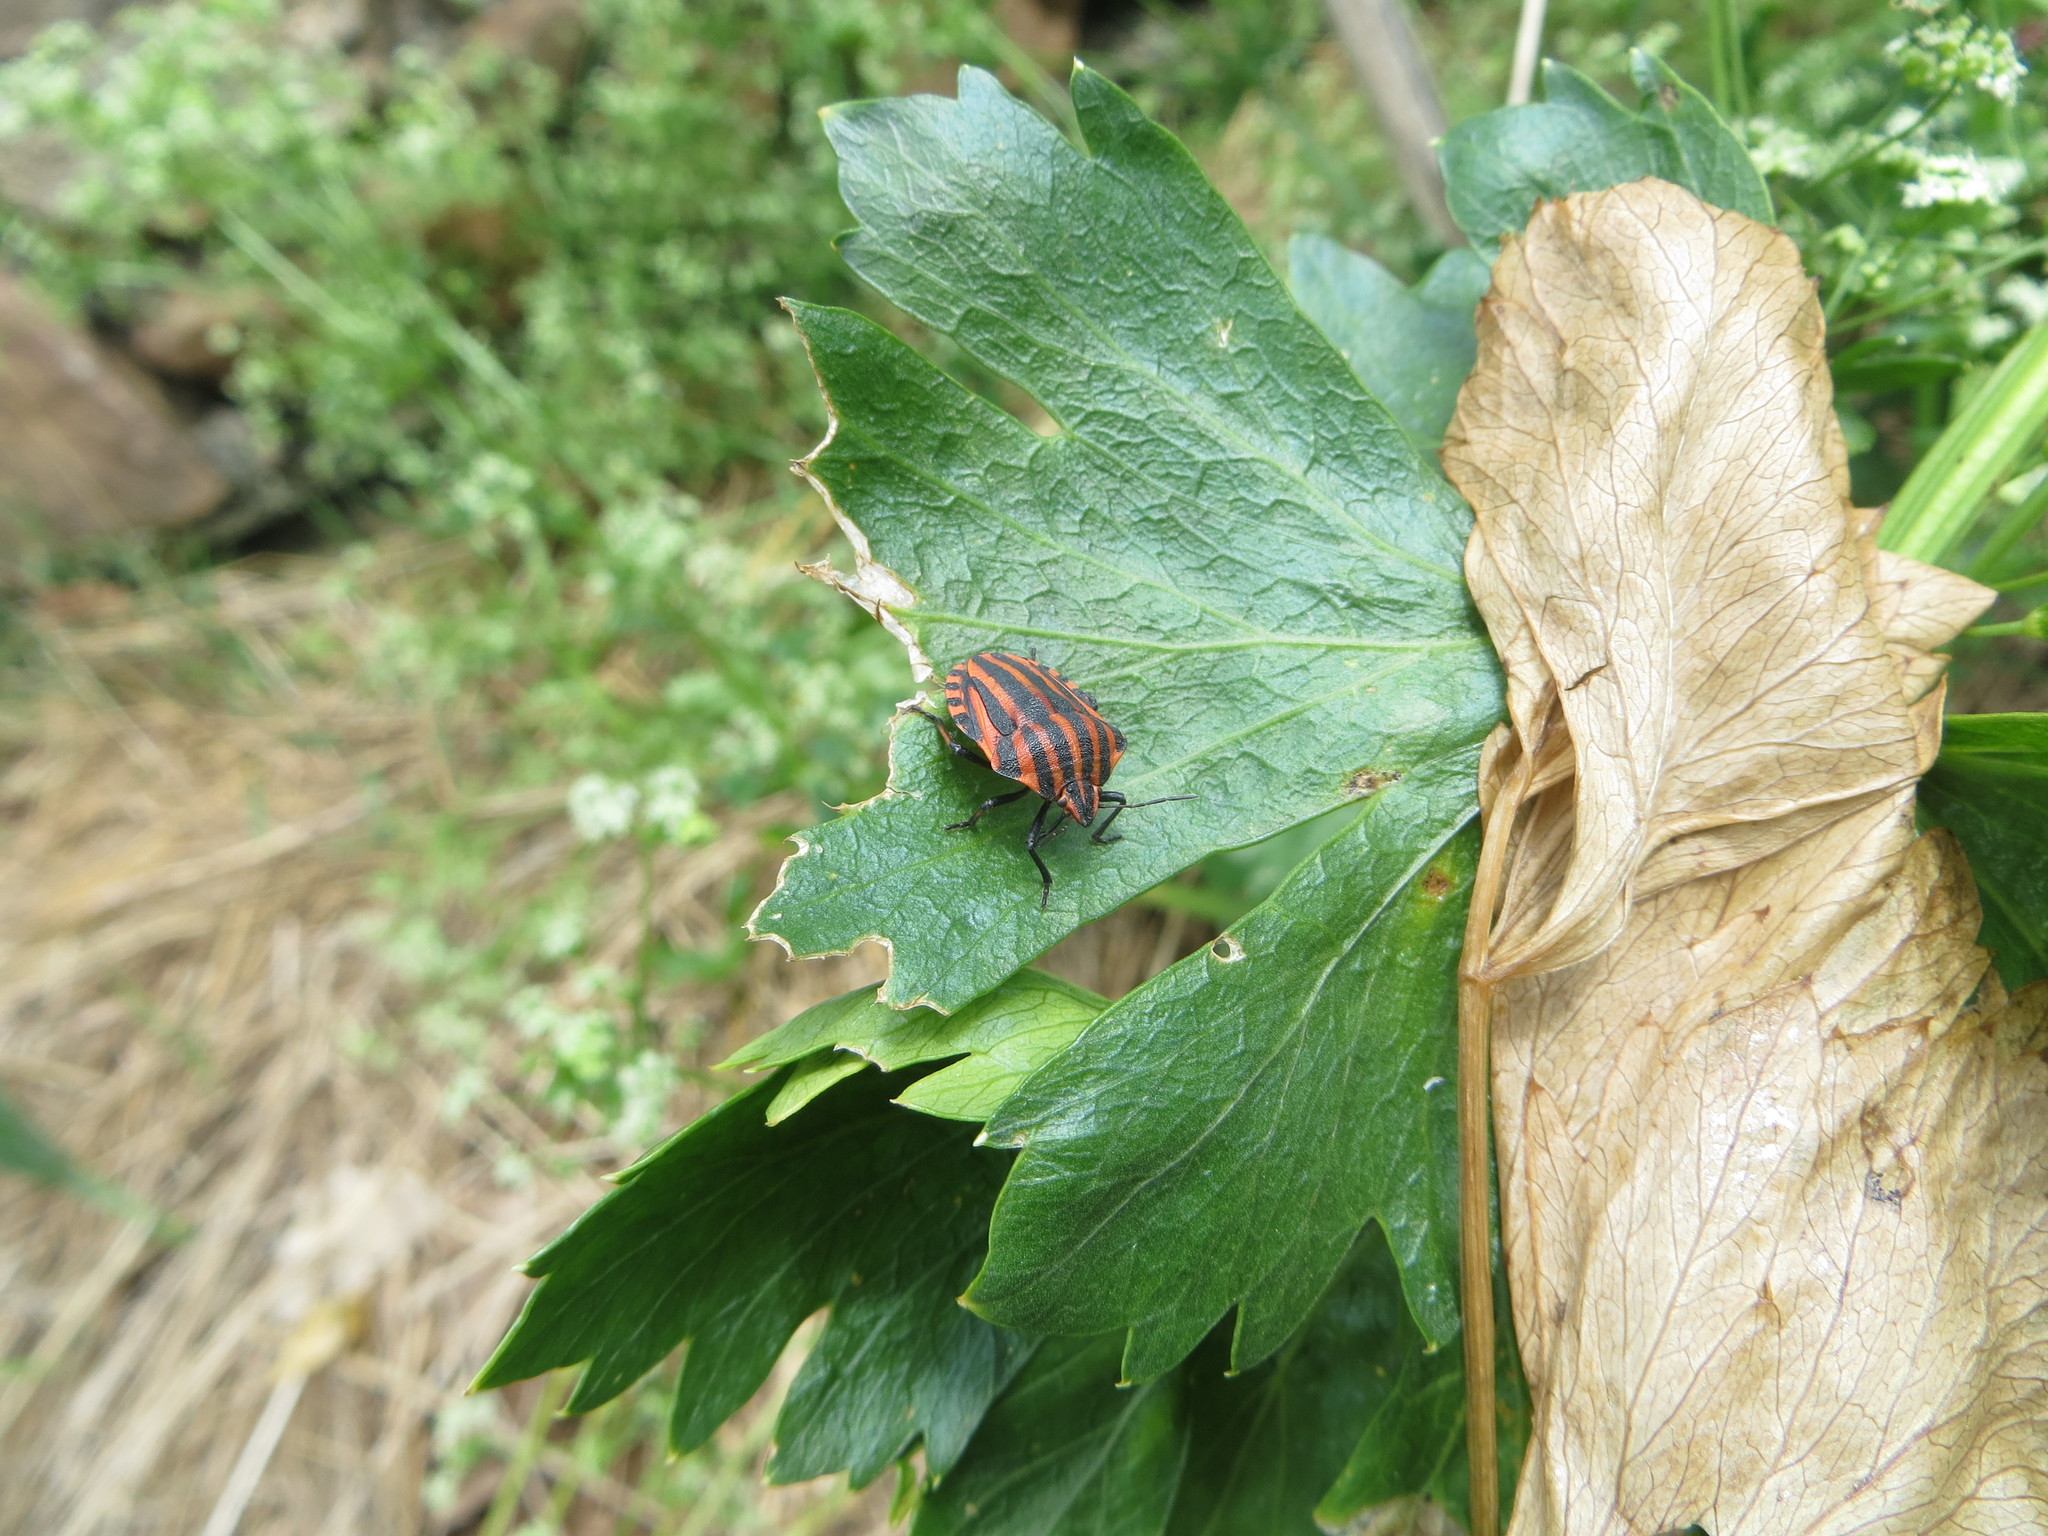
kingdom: Animalia
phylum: Arthropoda
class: Insecta
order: Hemiptera
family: Pentatomidae
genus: Graphosoma
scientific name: Graphosoma italicum
